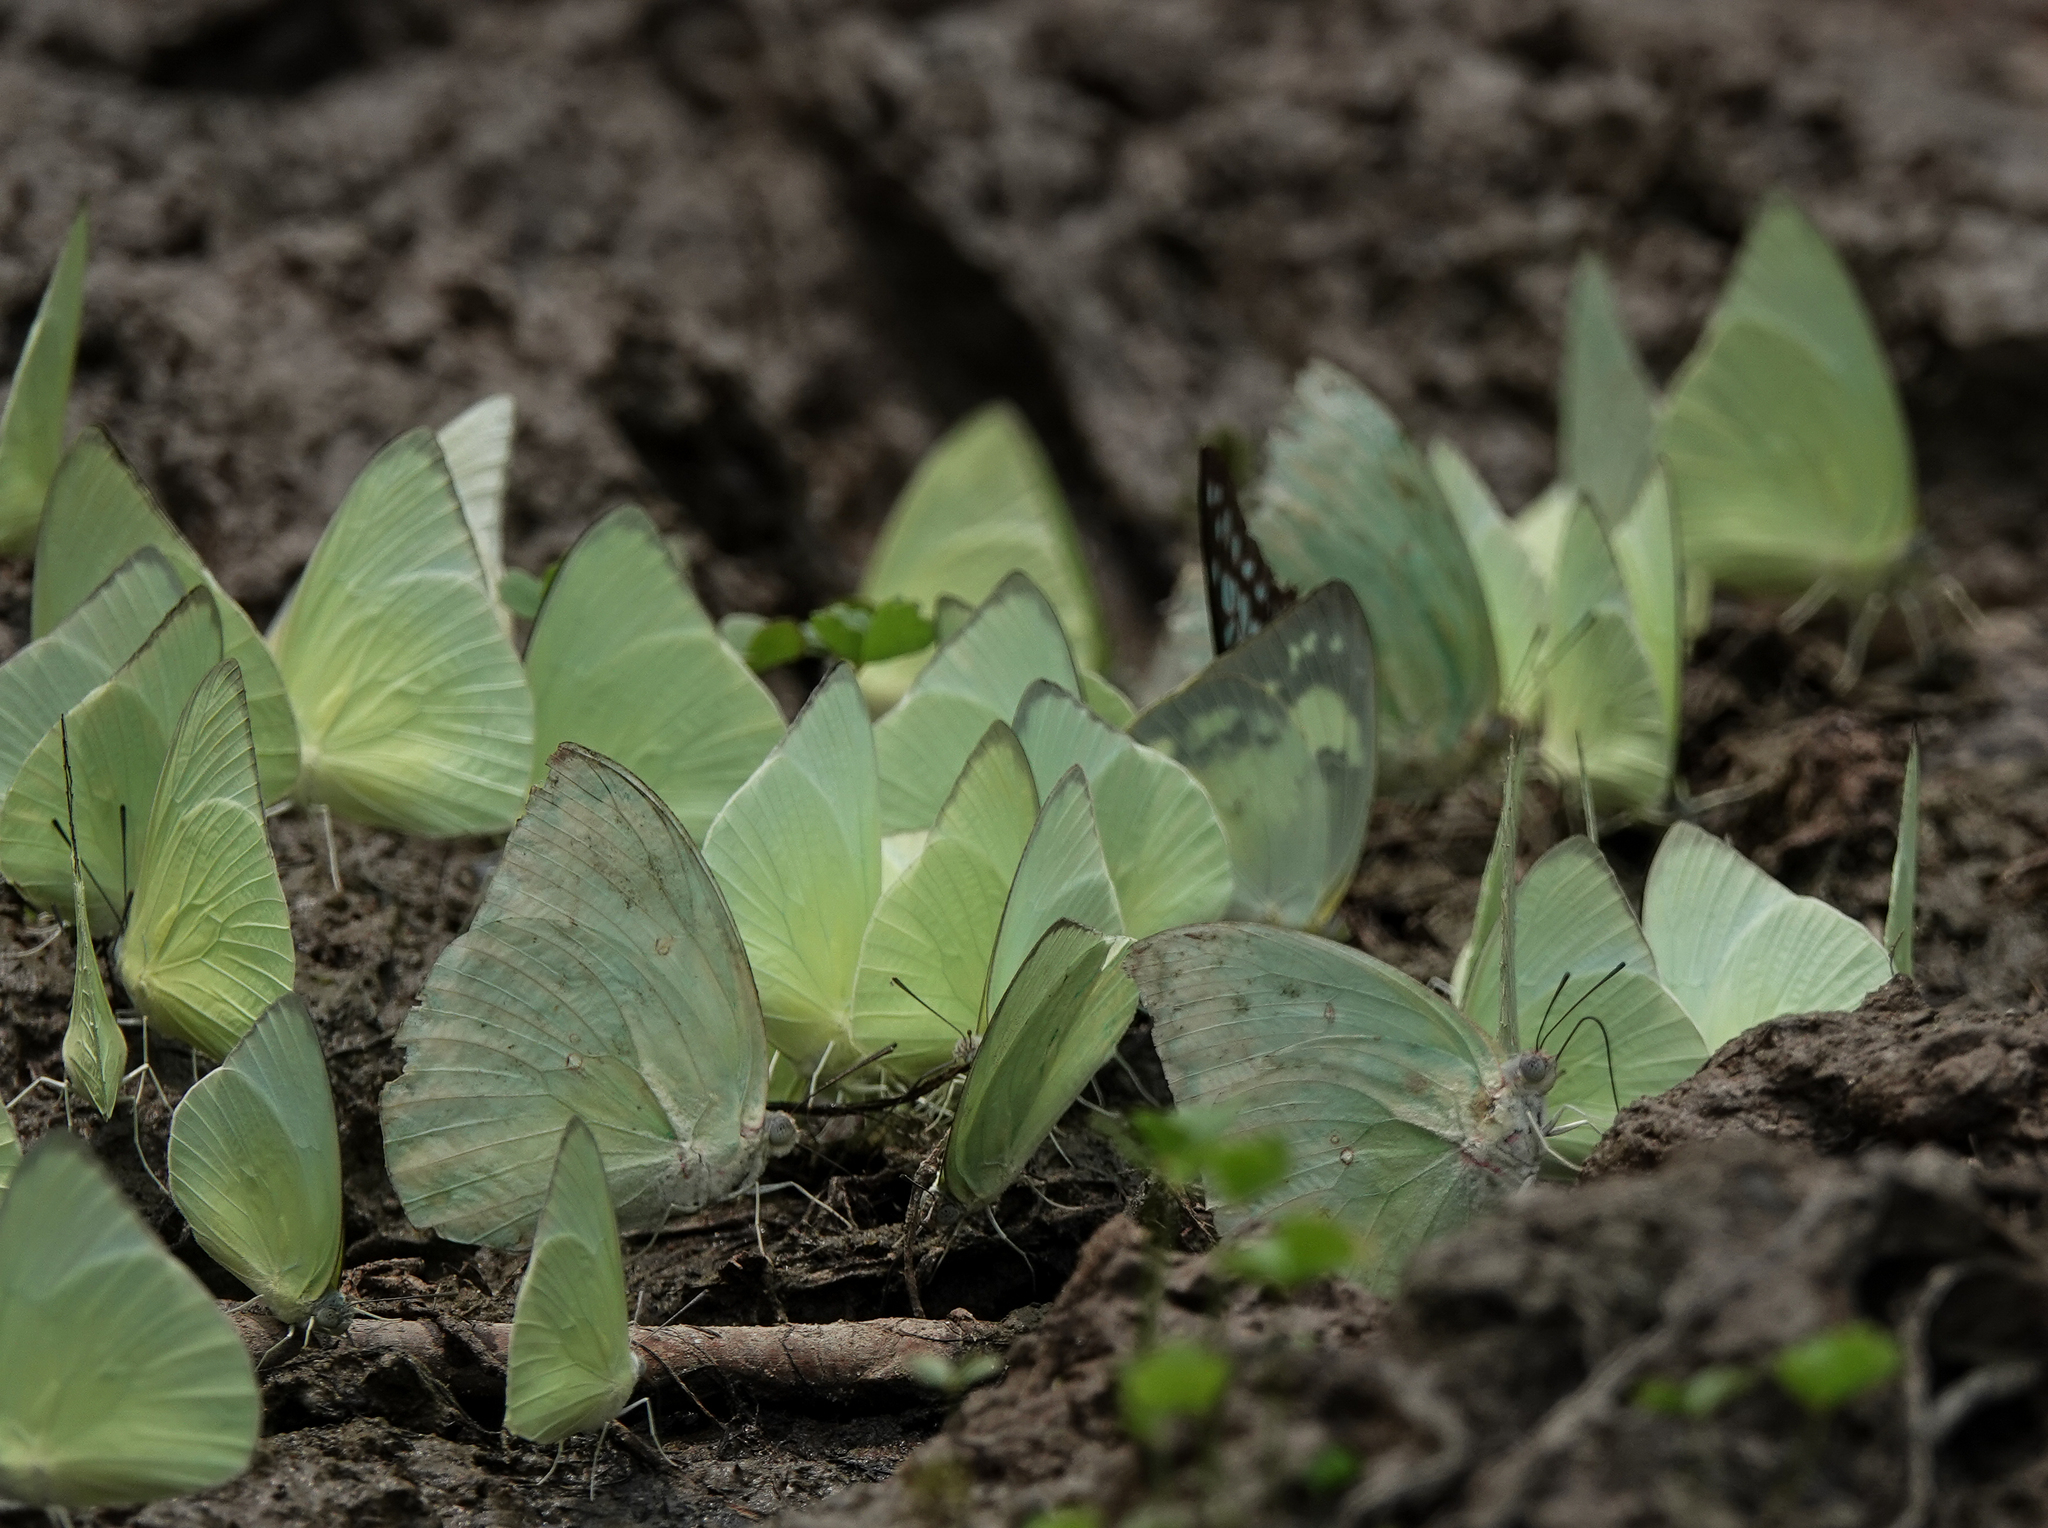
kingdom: Animalia
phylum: Arthropoda
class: Insecta
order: Lepidoptera
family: Pieridae
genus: Catopsilia
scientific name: Catopsilia pomona
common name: Common emigrant
